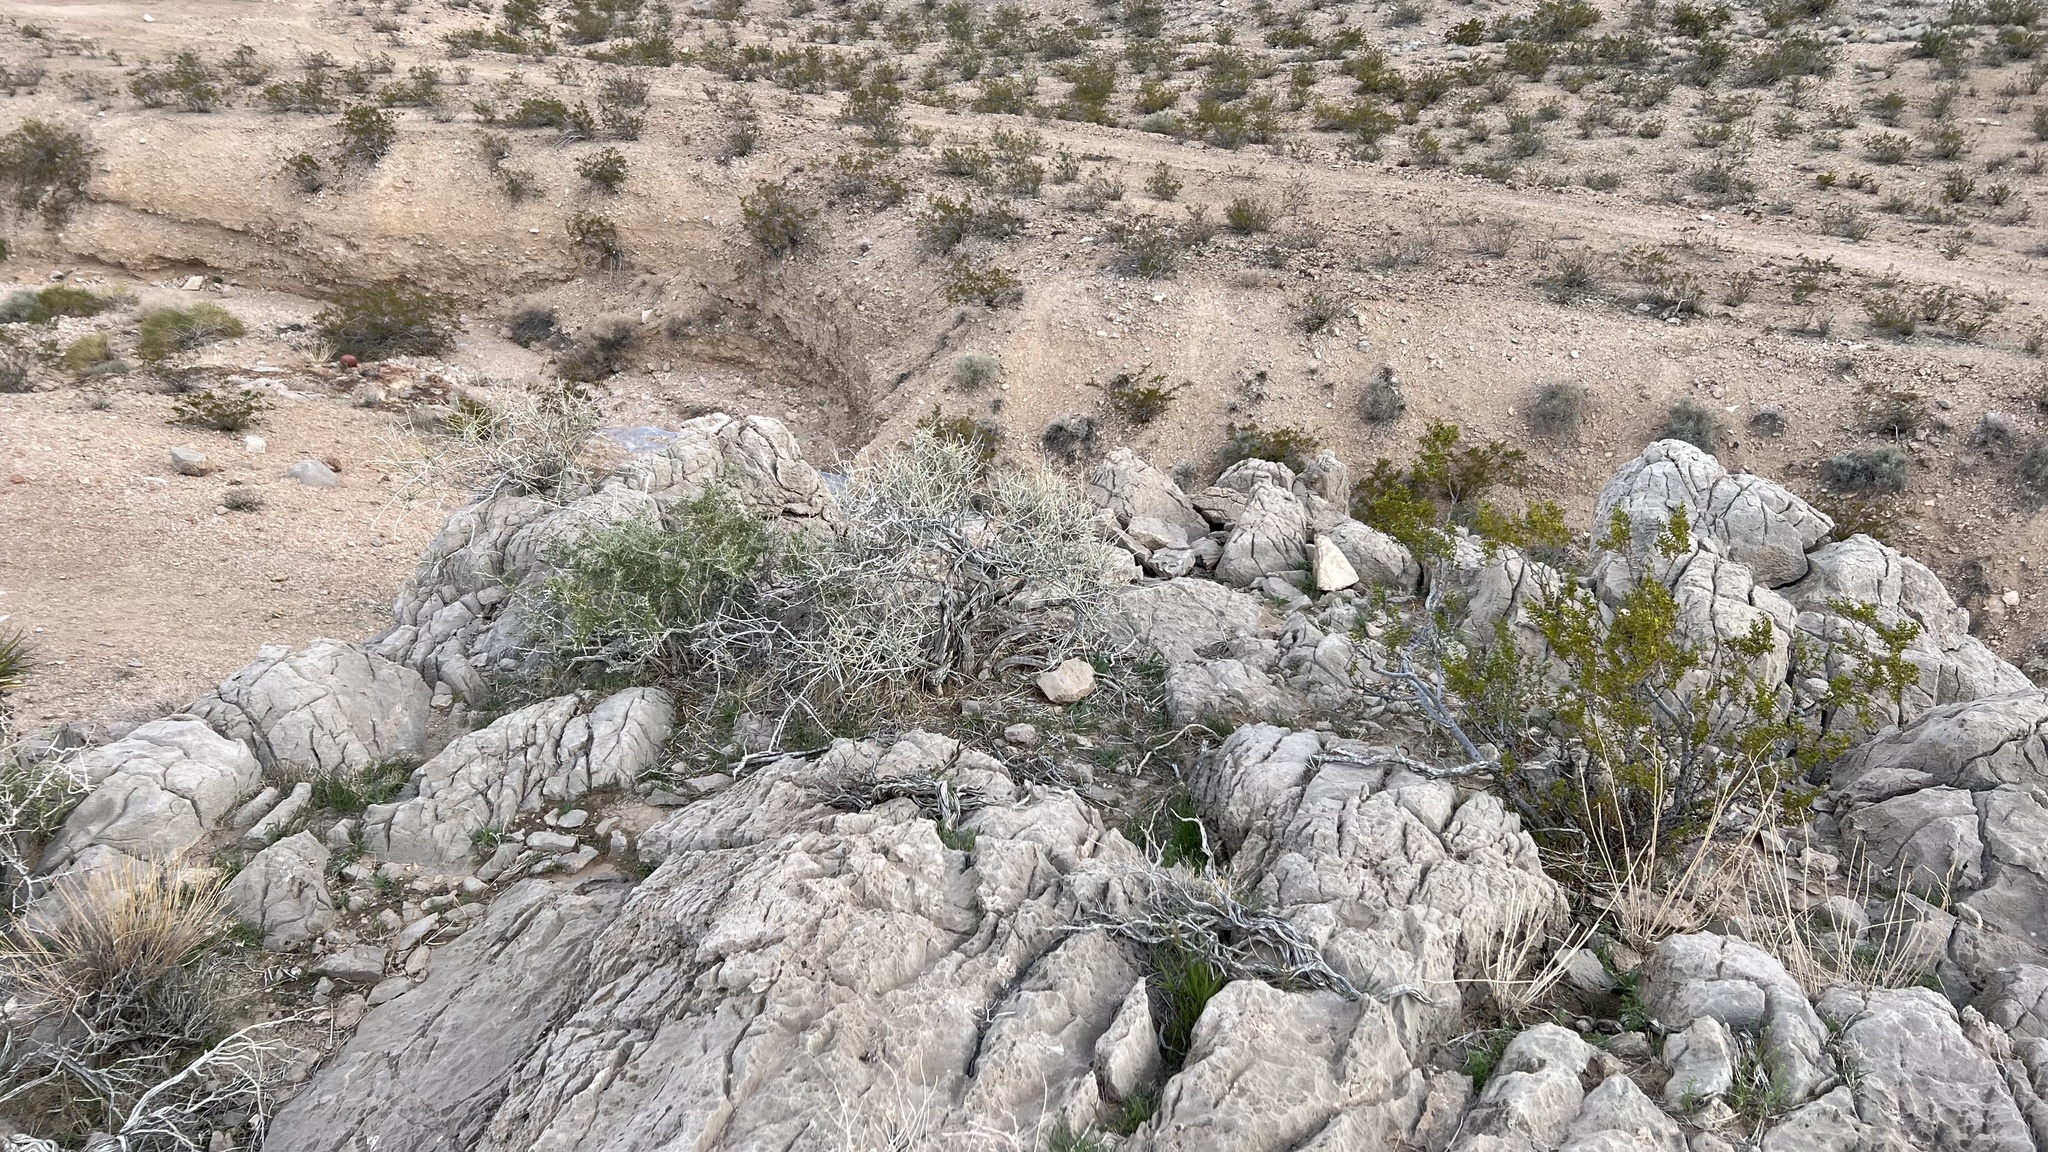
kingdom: Plantae
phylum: Tracheophyta
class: Gnetopsida
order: Ephedrales
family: Ephedraceae
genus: Ephedra
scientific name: Ephedra nevadensis
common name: Gray ephedra
